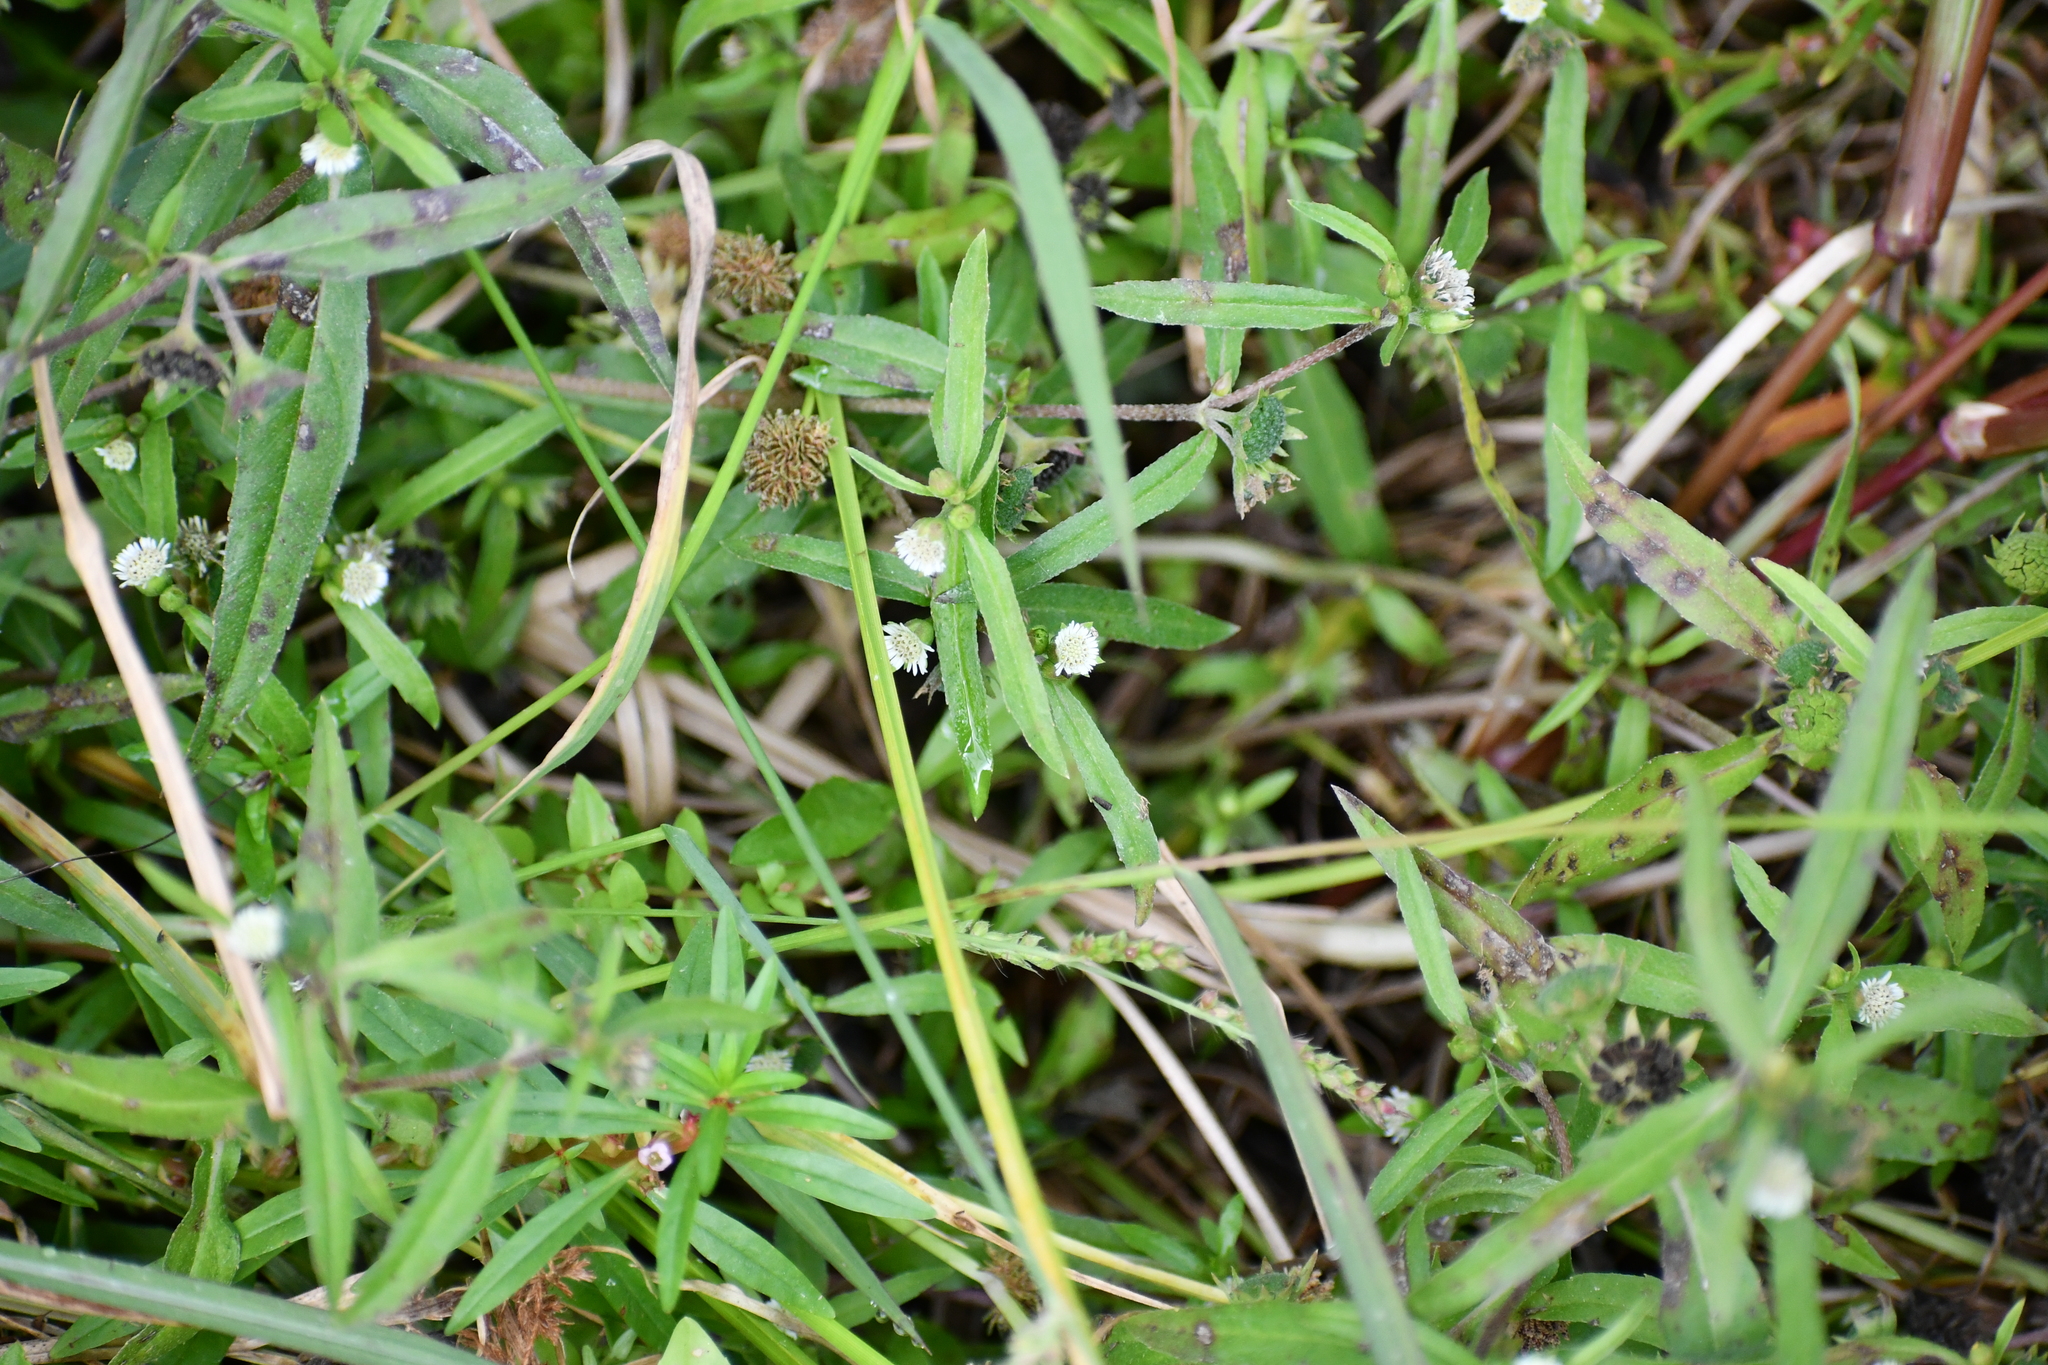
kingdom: Plantae
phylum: Tracheophyta
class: Magnoliopsida
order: Asterales
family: Asteraceae
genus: Eclipta
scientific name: Eclipta prostrata
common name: False daisy
